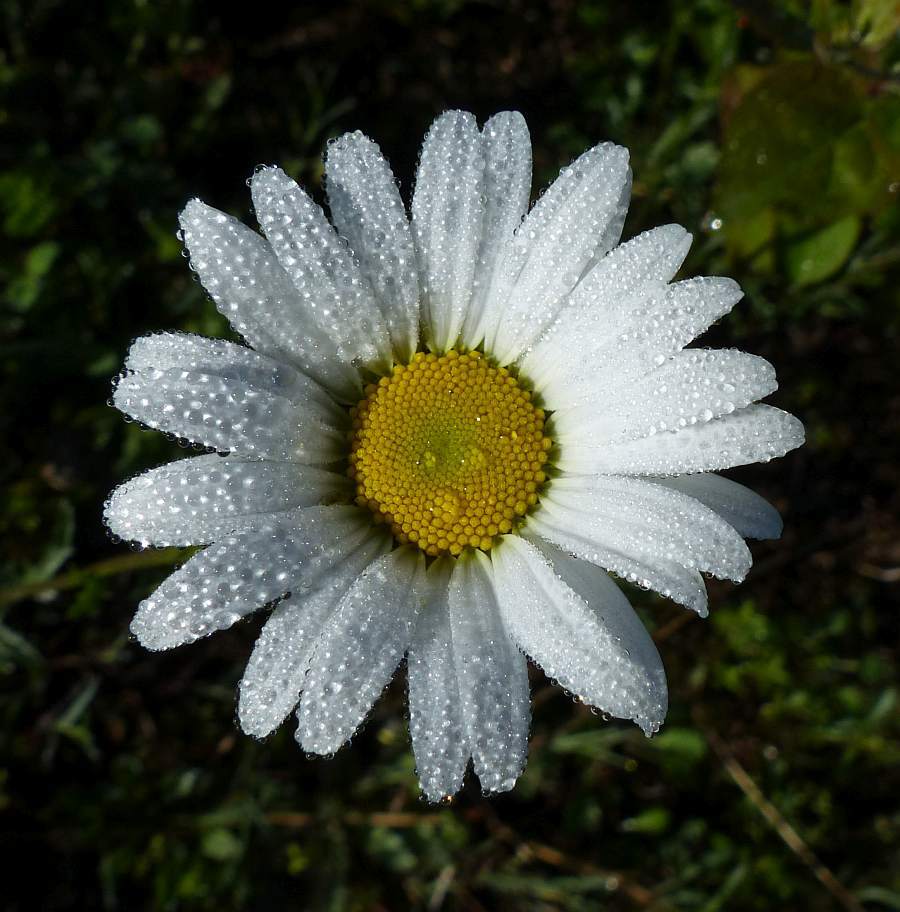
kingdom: Plantae
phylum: Tracheophyta
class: Magnoliopsida
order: Asterales
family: Asteraceae
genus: Leucanthemum
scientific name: Leucanthemum vulgare
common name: Oxeye daisy
